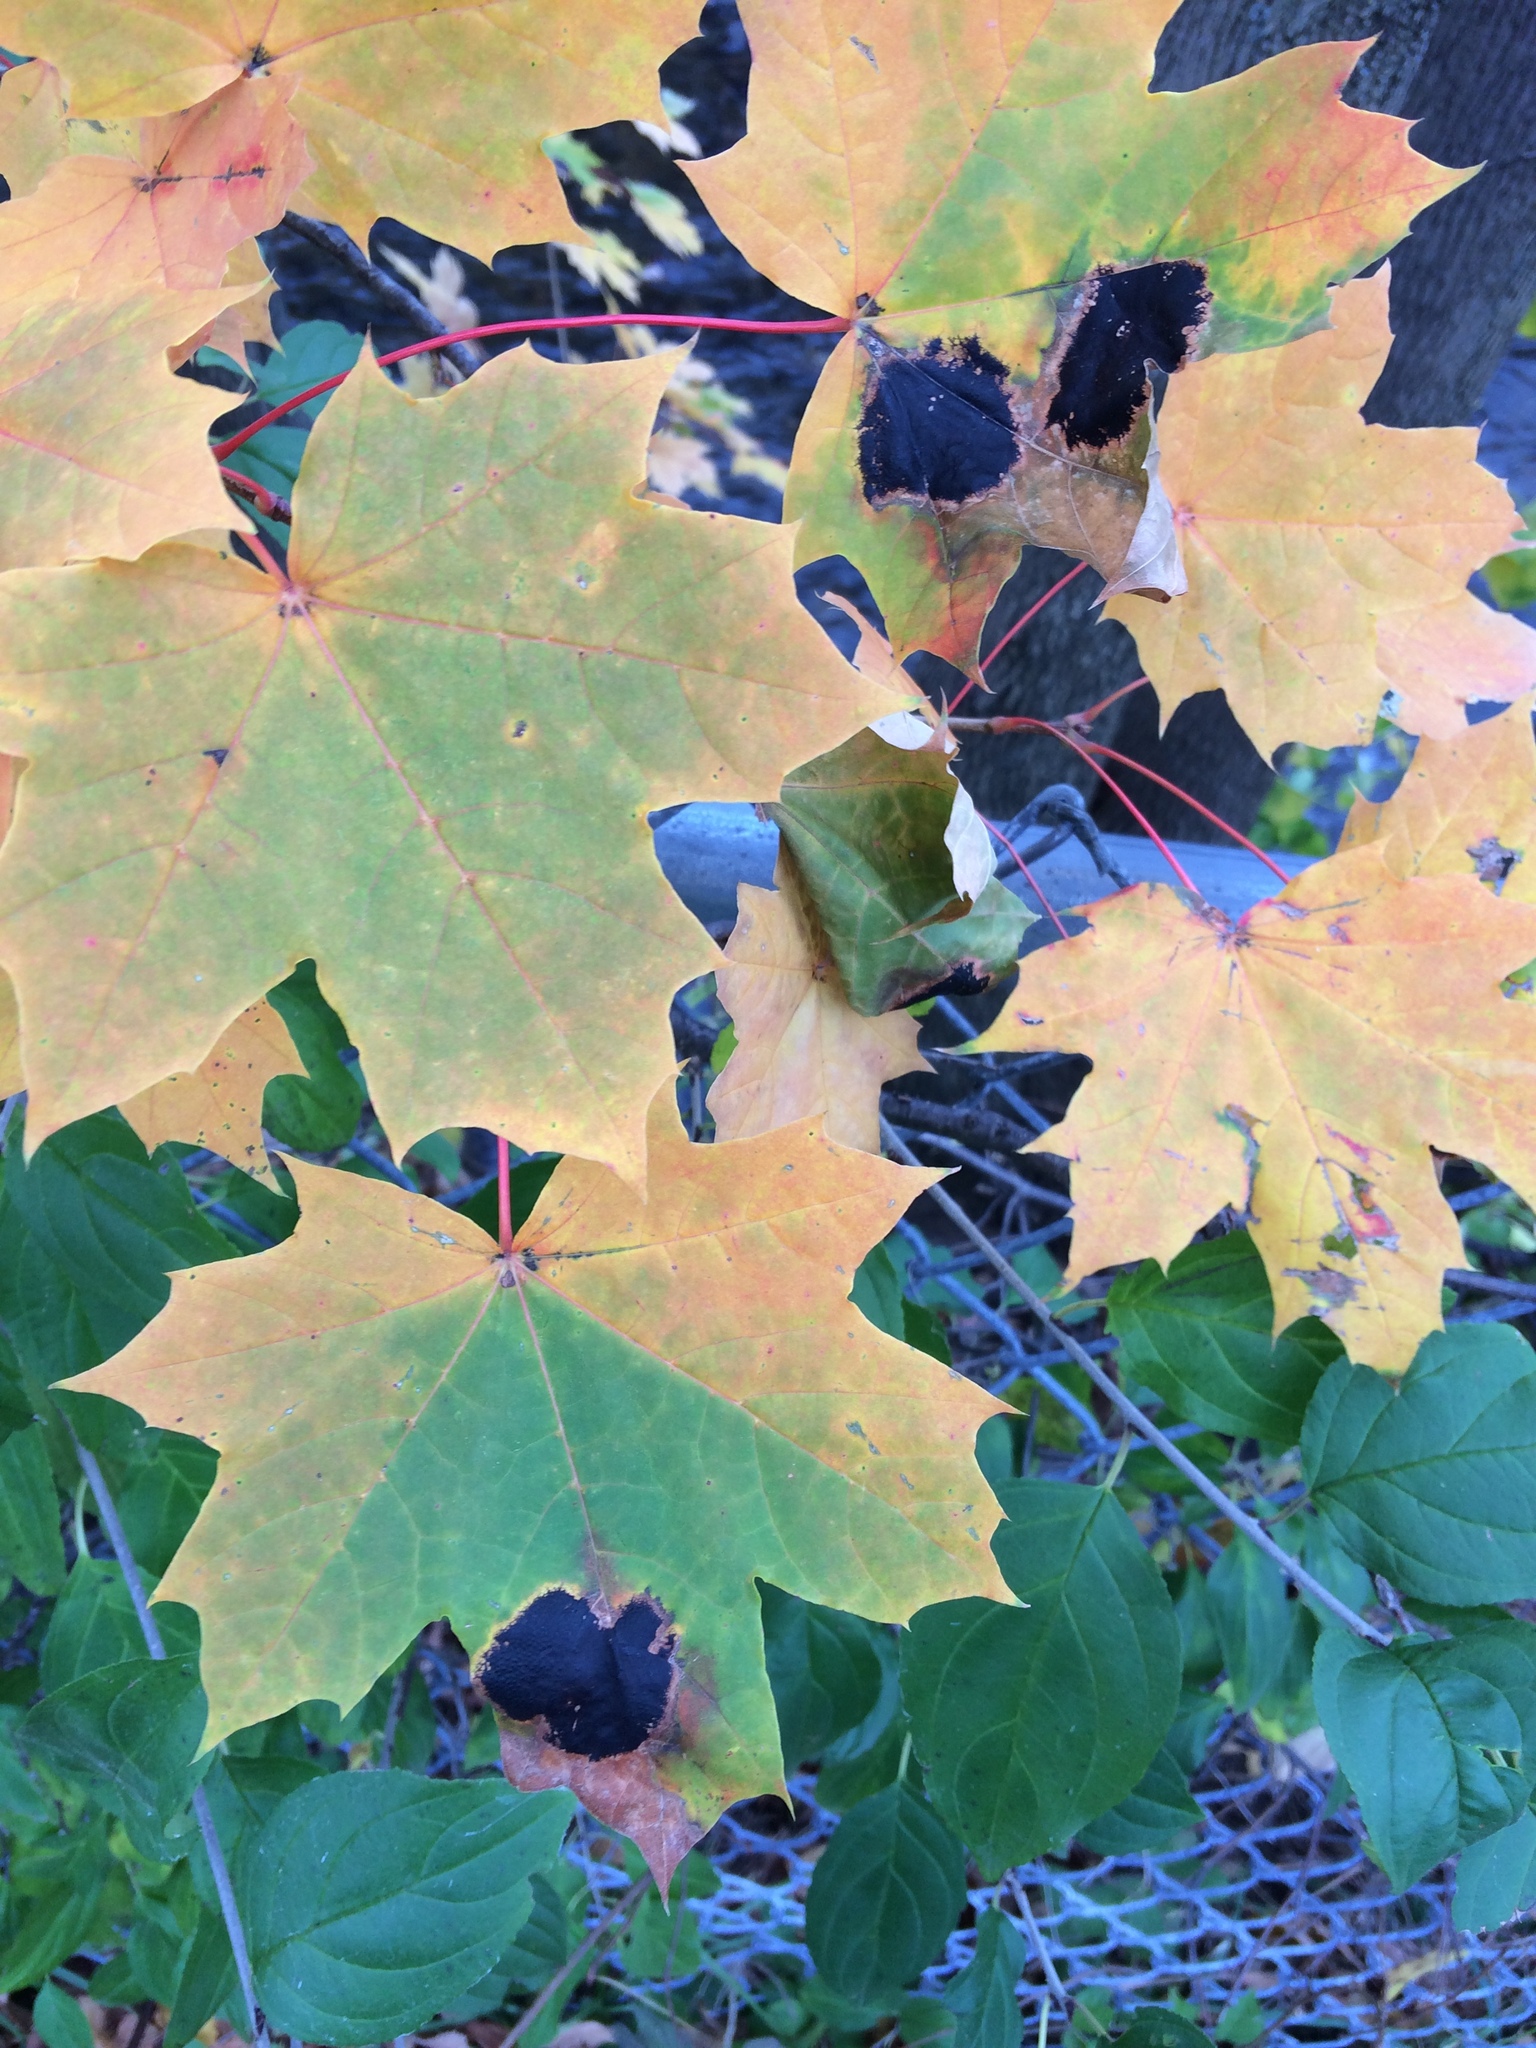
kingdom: Fungi
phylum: Ascomycota
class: Leotiomycetes
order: Rhytismatales
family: Rhytismataceae
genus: Rhytisma
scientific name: Rhytisma acerinum
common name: European tar spot
